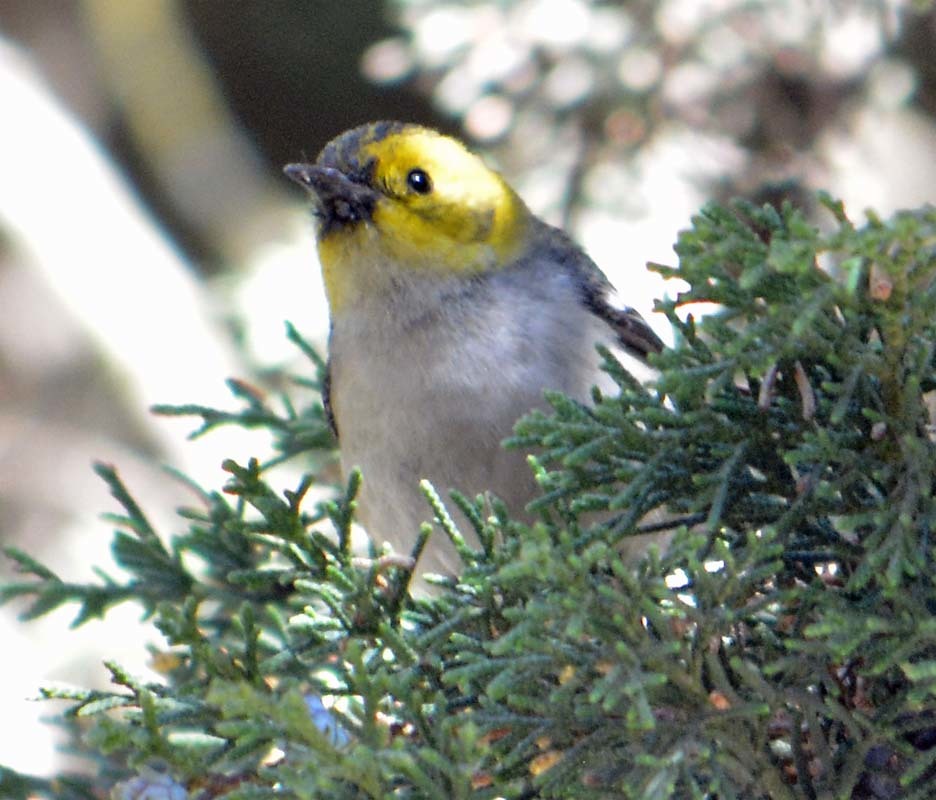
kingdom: Animalia
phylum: Chordata
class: Aves
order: Passeriformes
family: Parulidae
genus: Setophaga
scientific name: Setophaga occidentalis
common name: Hermit warbler
